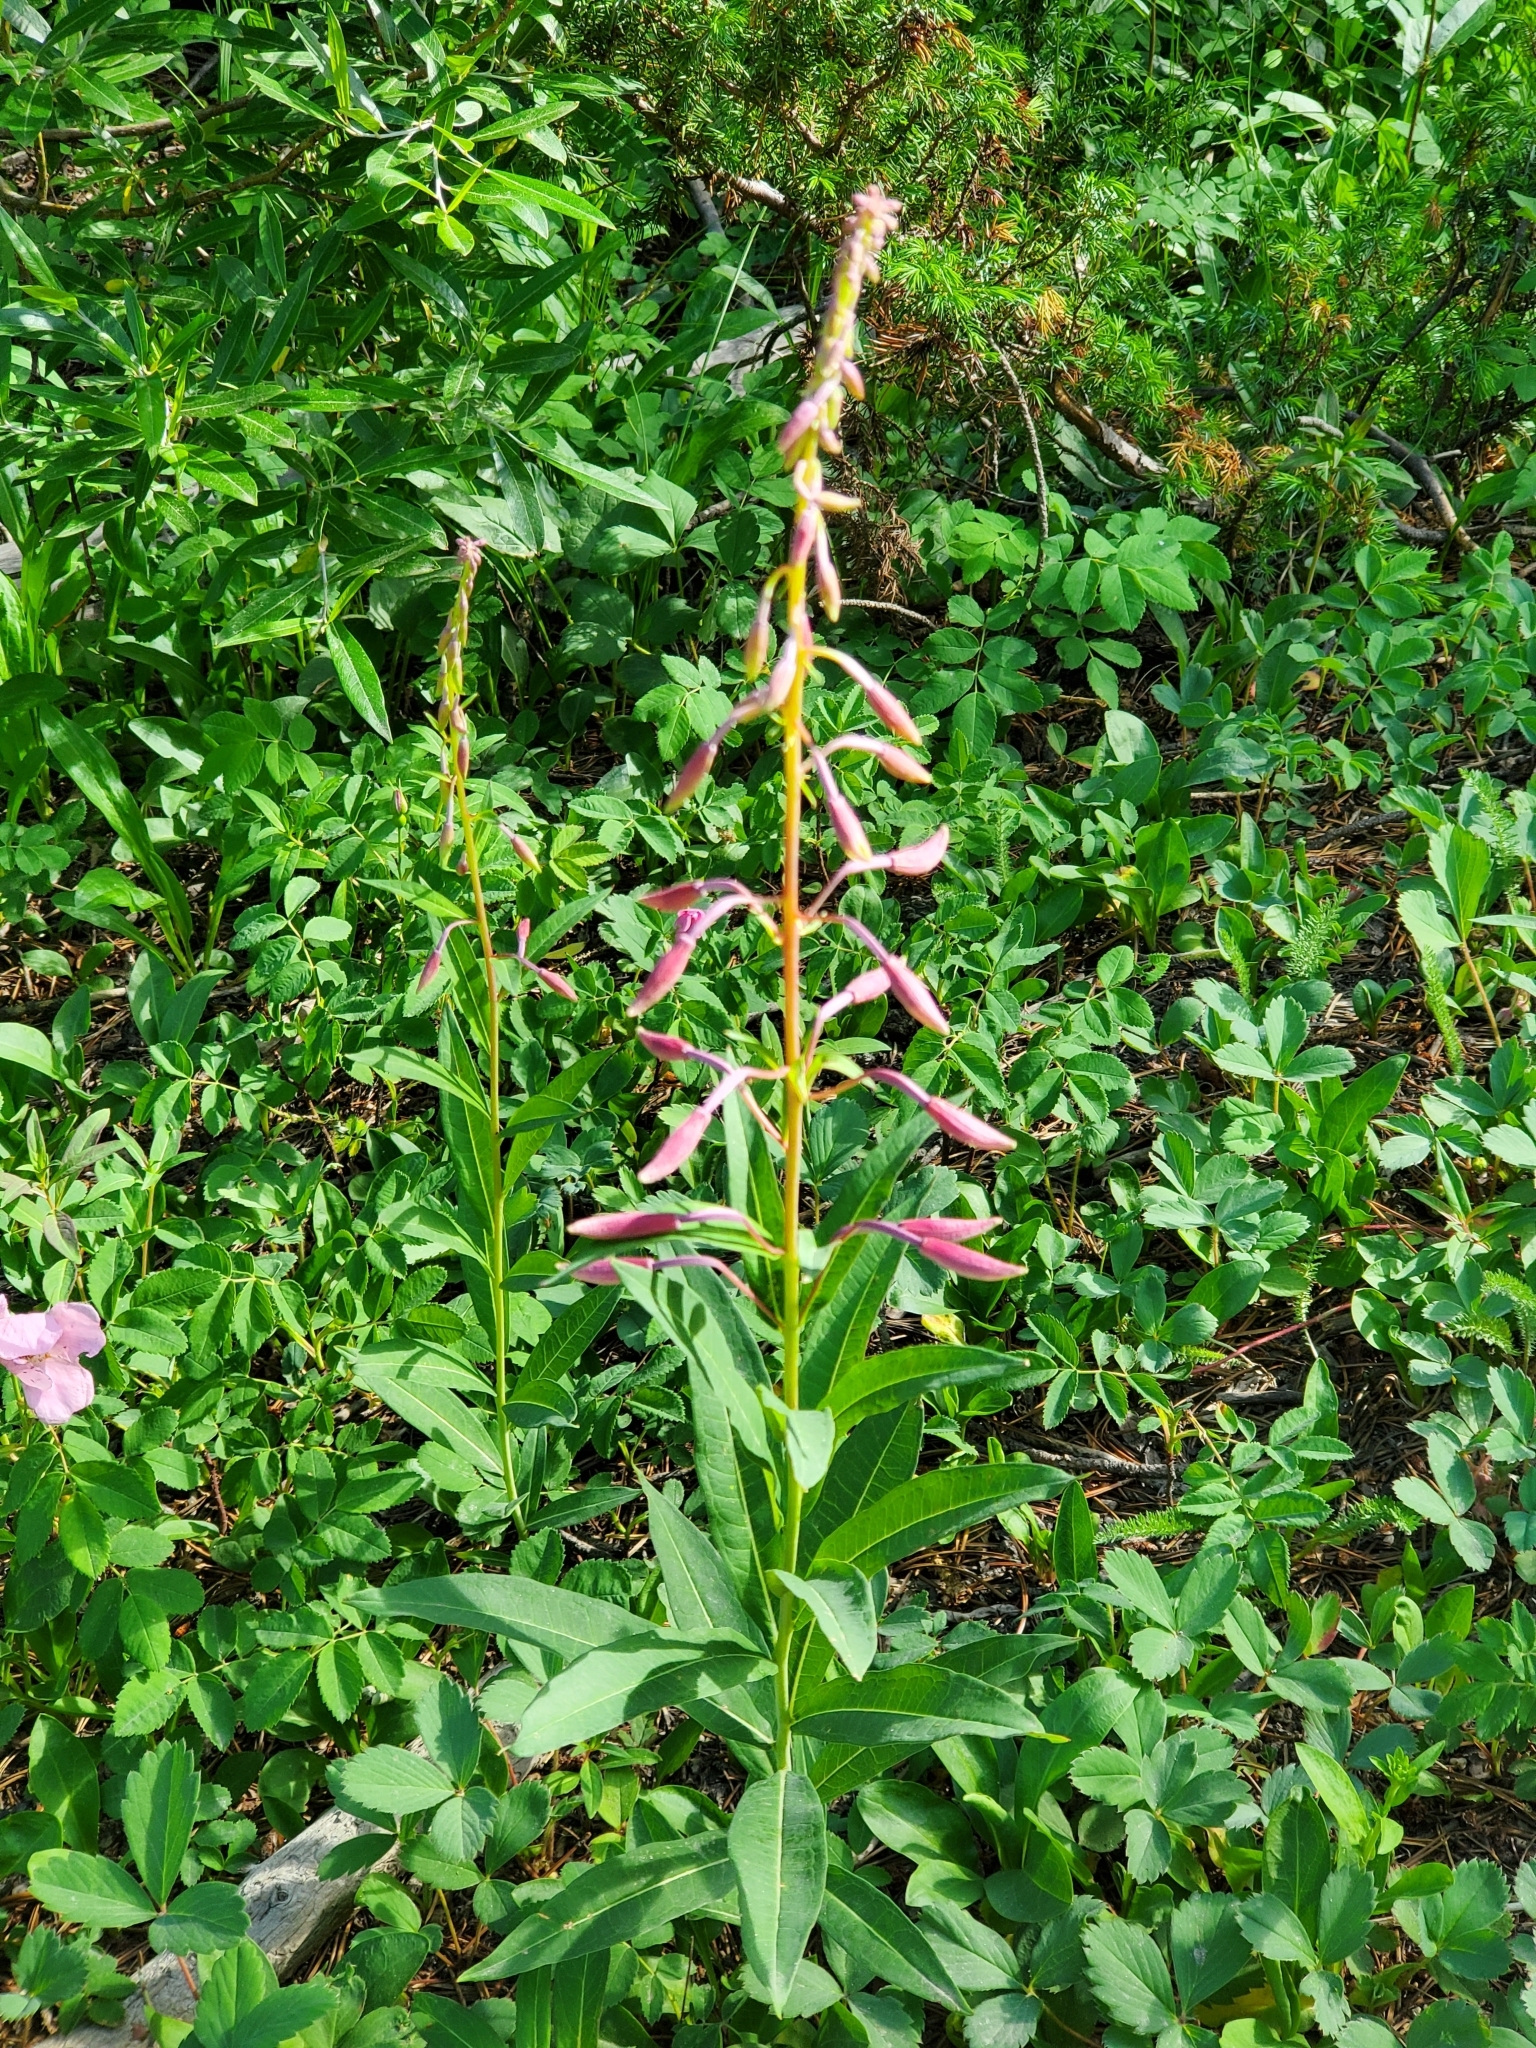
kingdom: Plantae
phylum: Tracheophyta
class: Magnoliopsida
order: Myrtales
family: Onagraceae
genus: Chamaenerion
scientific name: Chamaenerion angustifolium
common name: Fireweed
